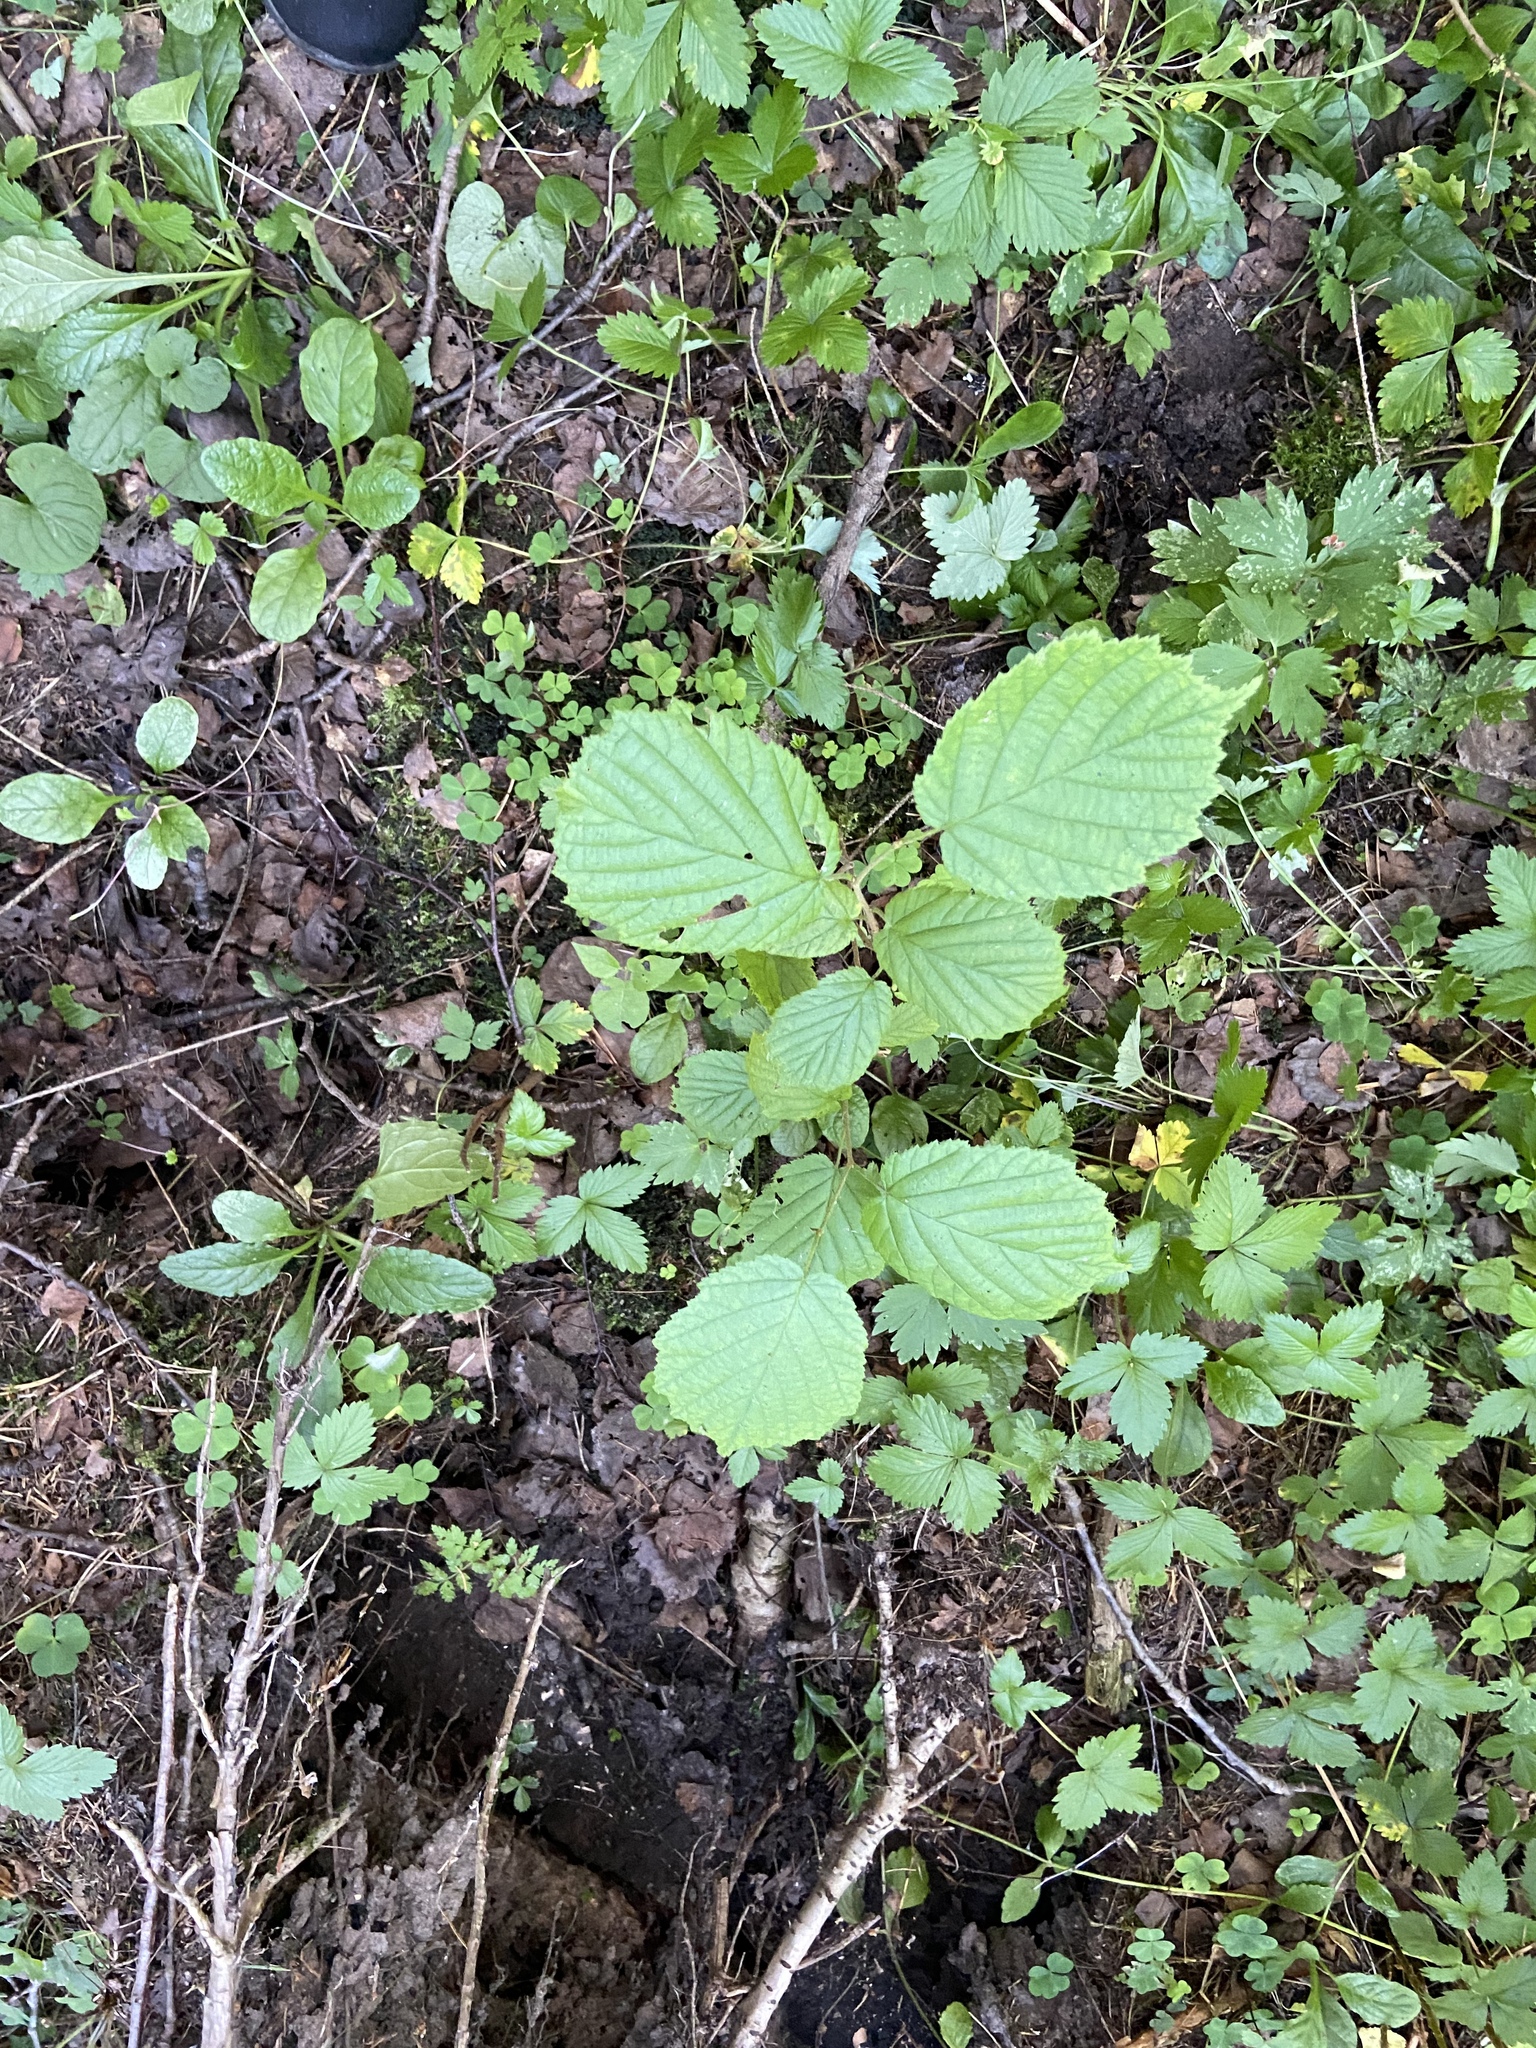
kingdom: Plantae
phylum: Tracheophyta
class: Magnoliopsida
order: Fagales
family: Betulaceae
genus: Corylus
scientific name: Corylus avellana
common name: European hazel
